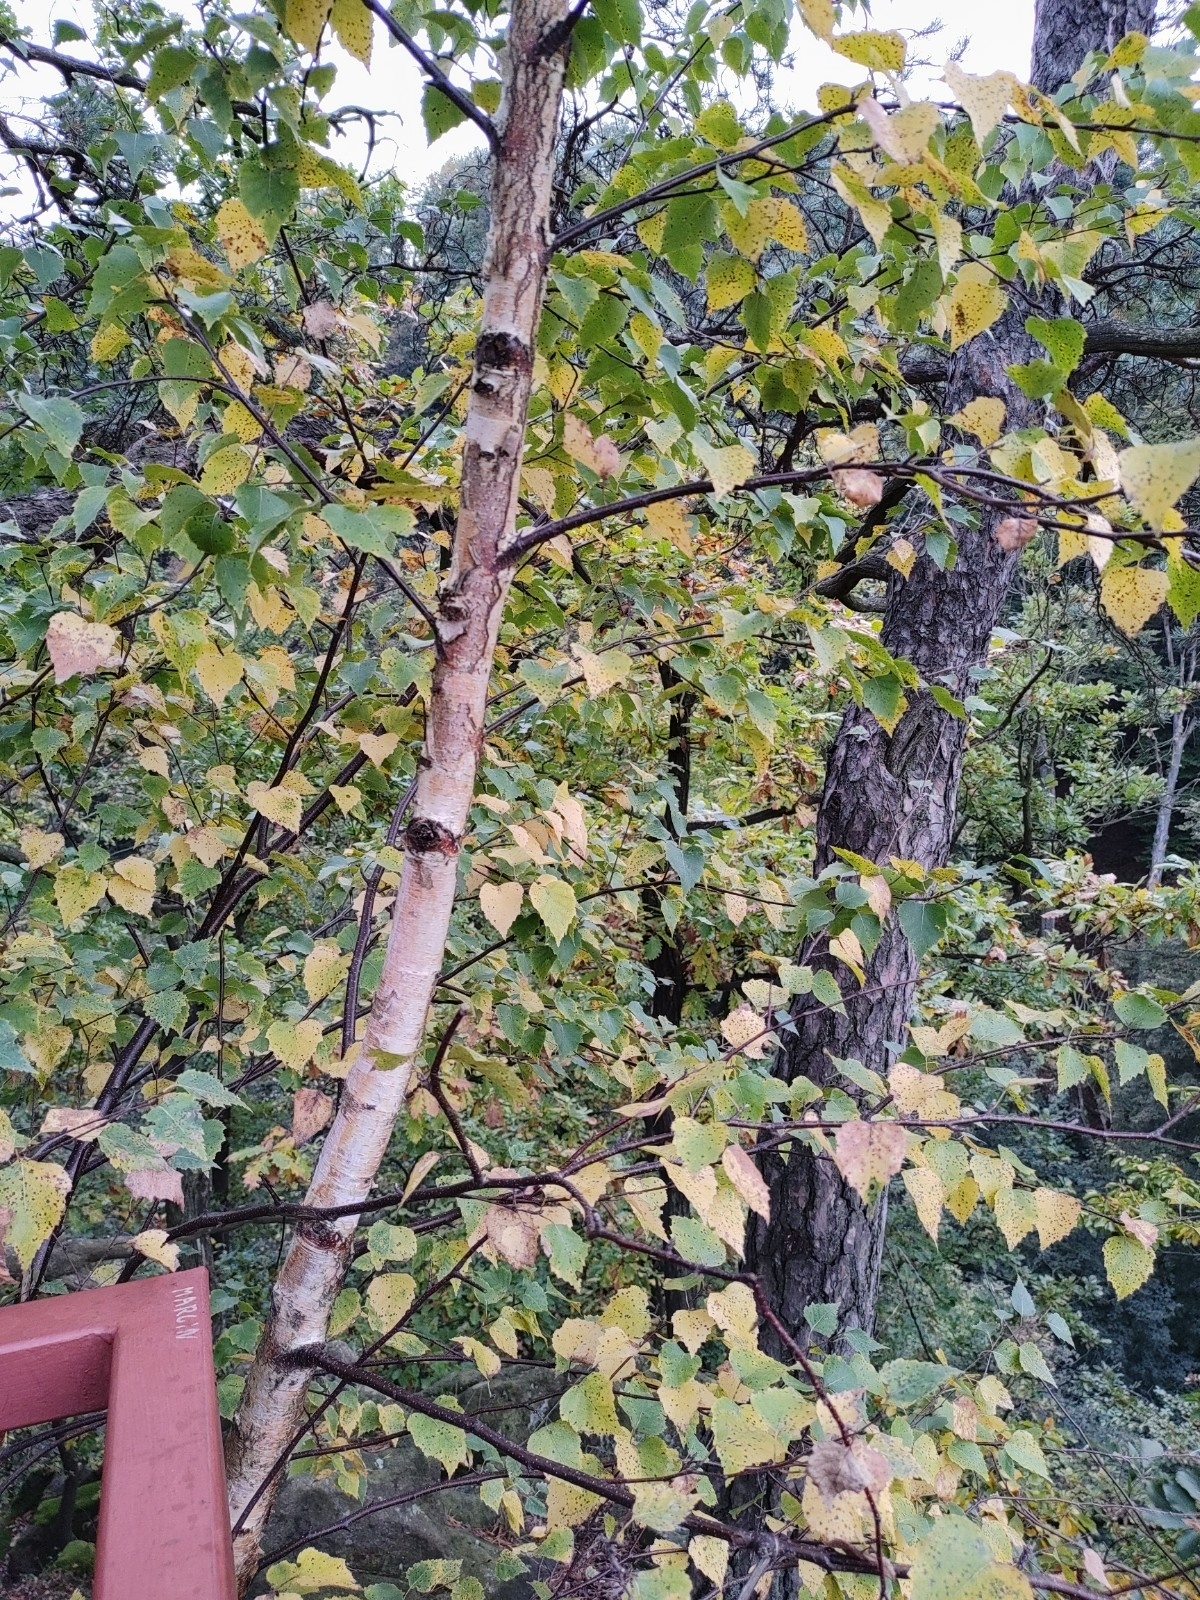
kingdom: Plantae
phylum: Tracheophyta
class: Magnoliopsida
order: Fagales
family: Betulaceae
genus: Betula
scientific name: Betula pendula
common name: Silver birch
